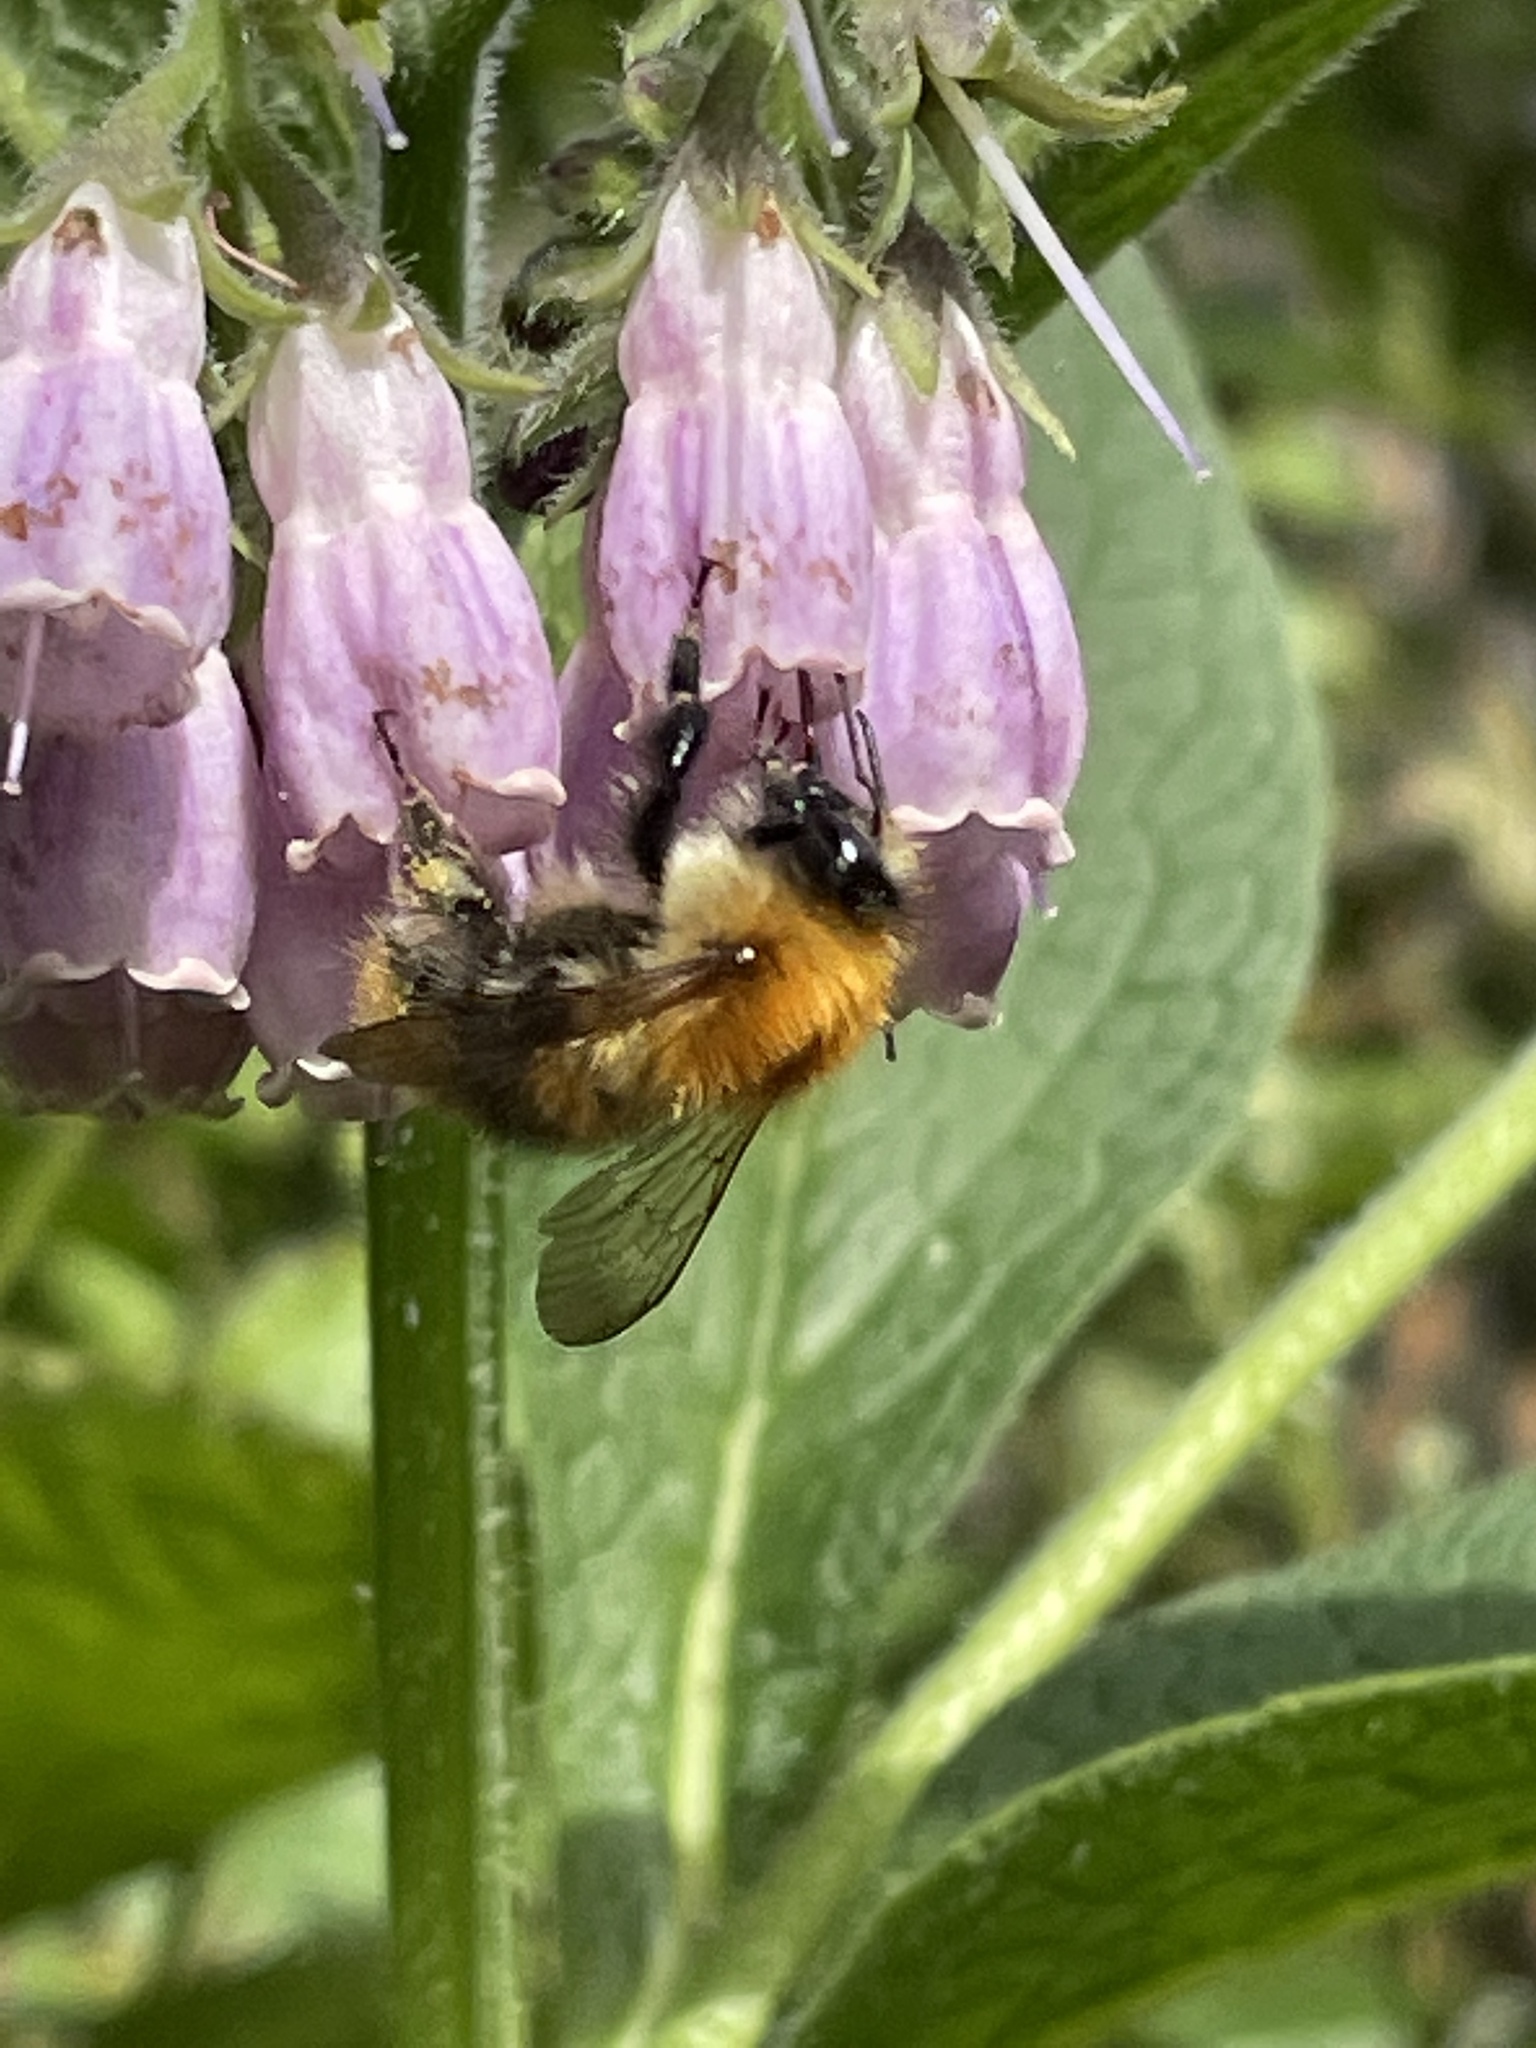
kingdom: Animalia
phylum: Arthropoda
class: Insecta
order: Hymenoptera
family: Apidae
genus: Bombus
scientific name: Bombus pascuorum
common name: Common carder bee
